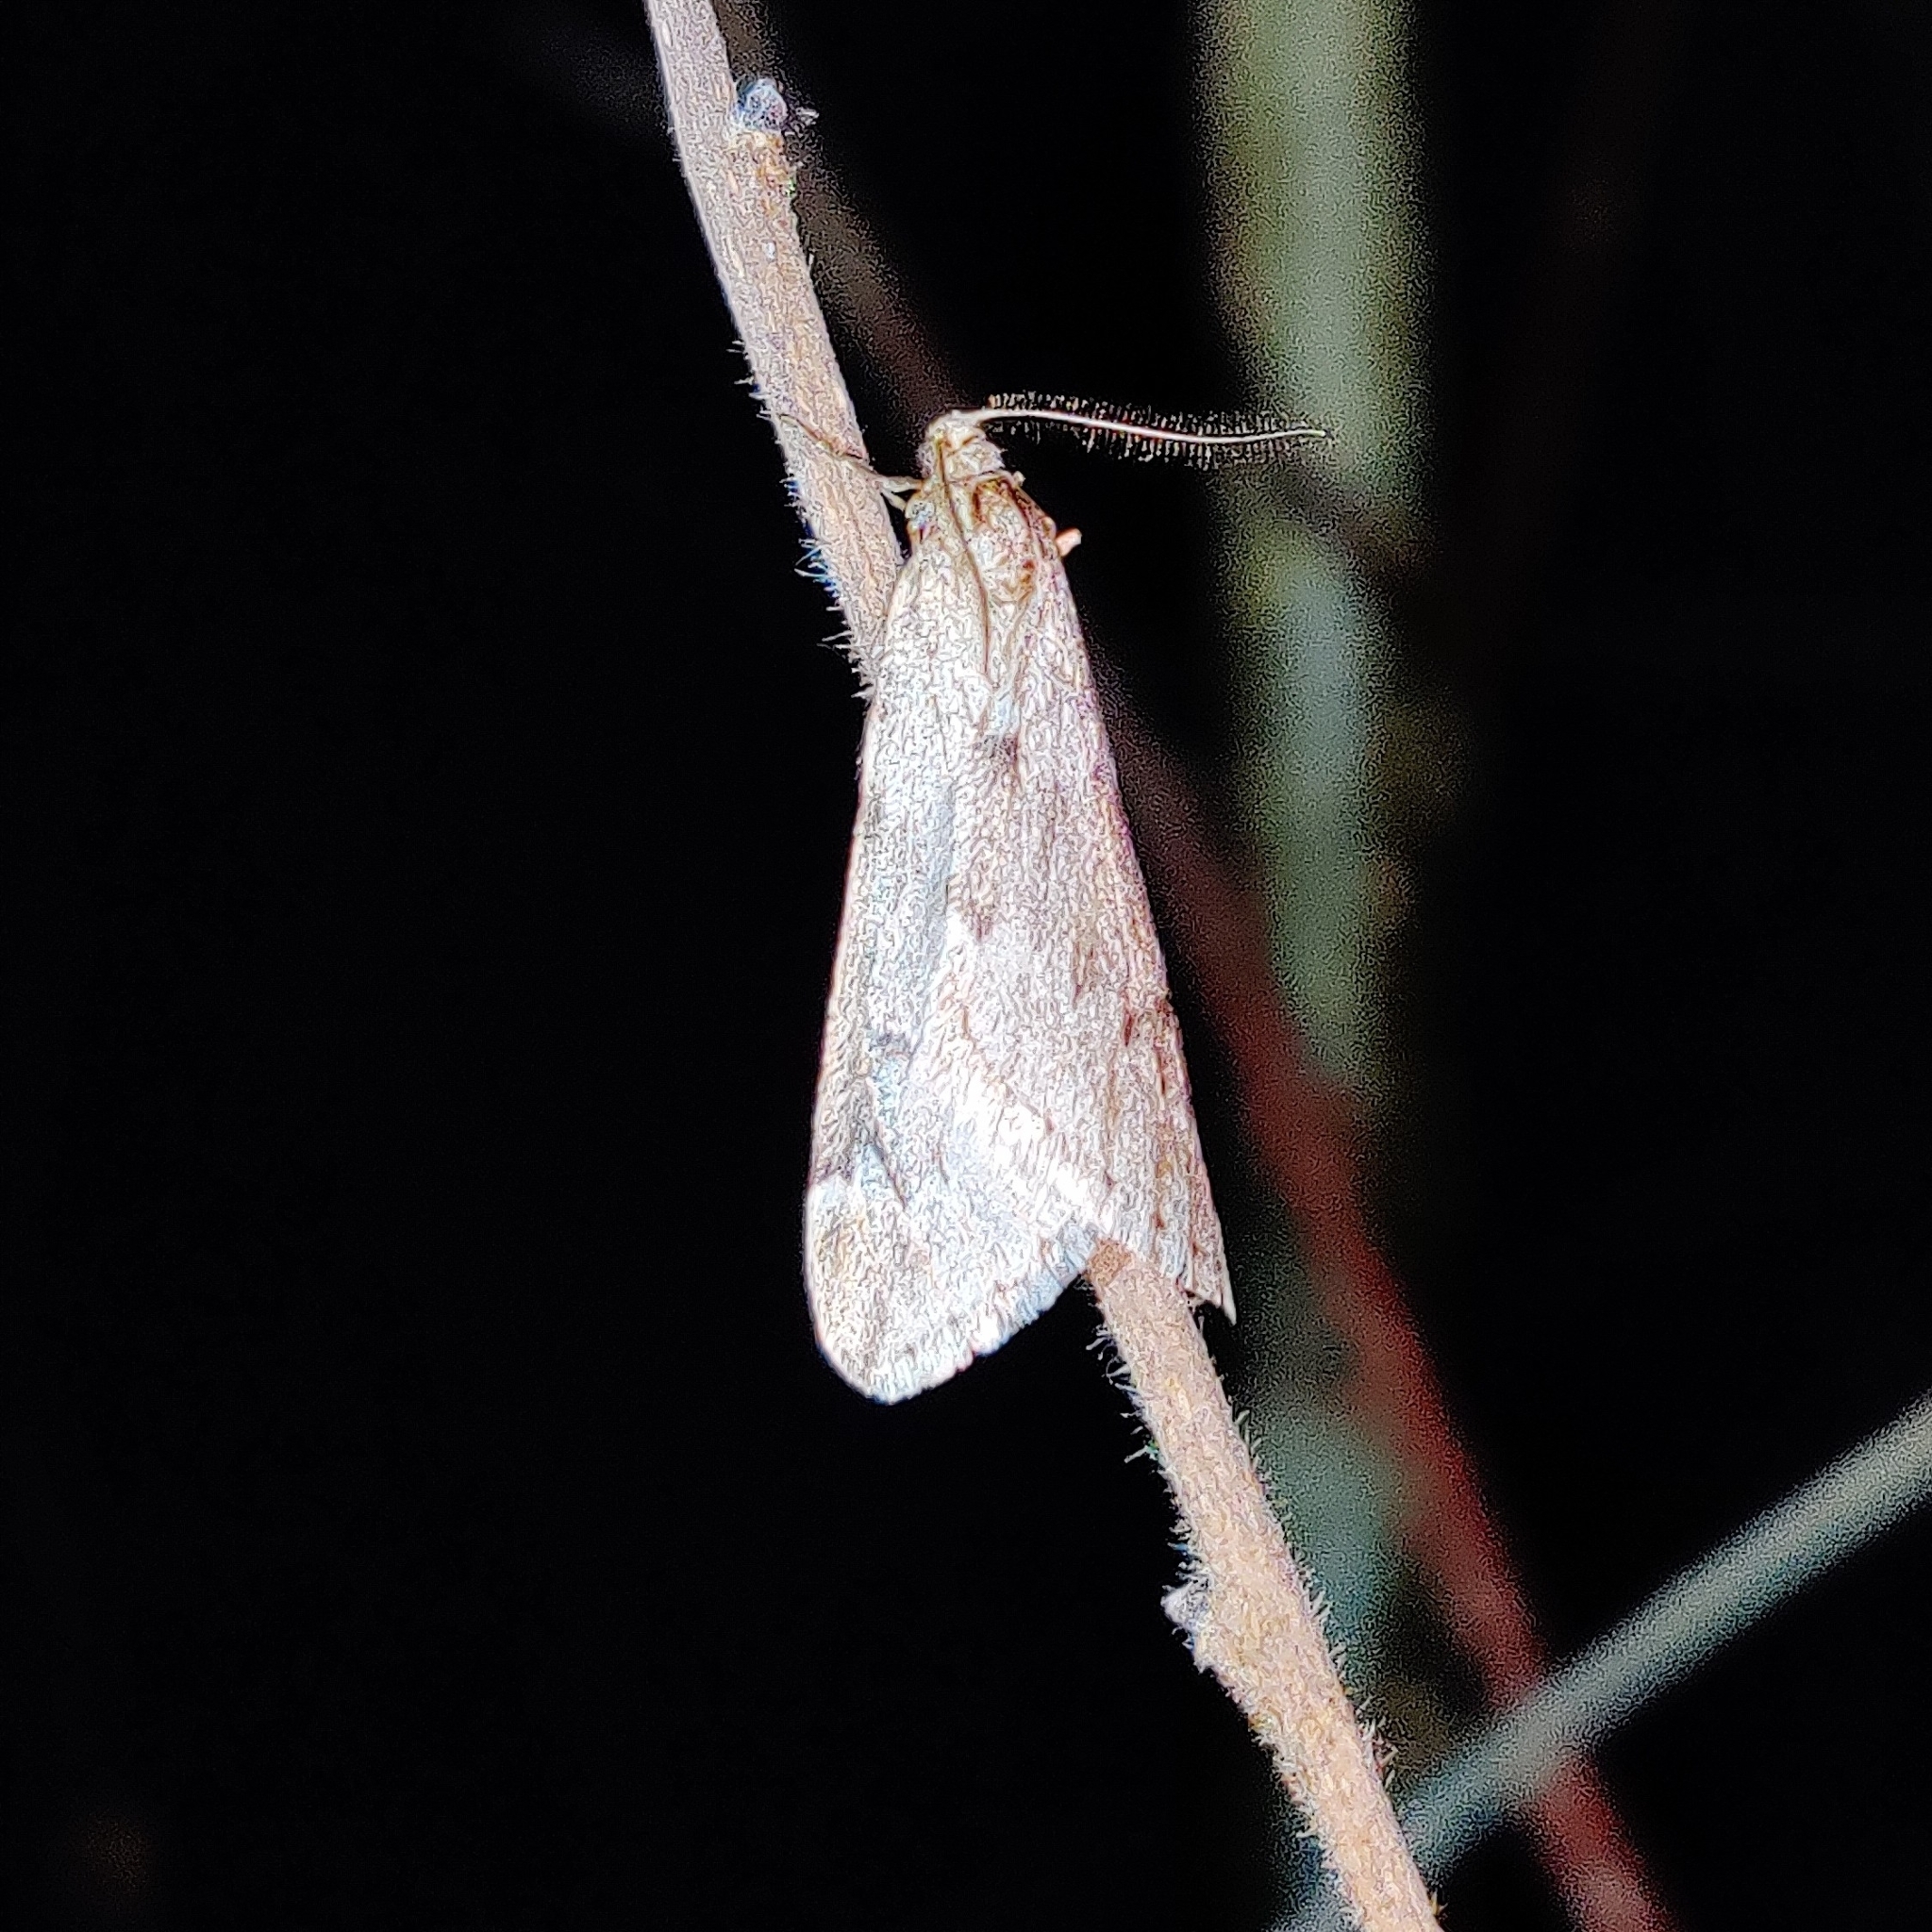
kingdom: Animalia
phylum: Arthropoda
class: Insecta
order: Lepidoptera
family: Geometridae
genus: Alsophila
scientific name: Alsophila aescularia
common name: March moth
